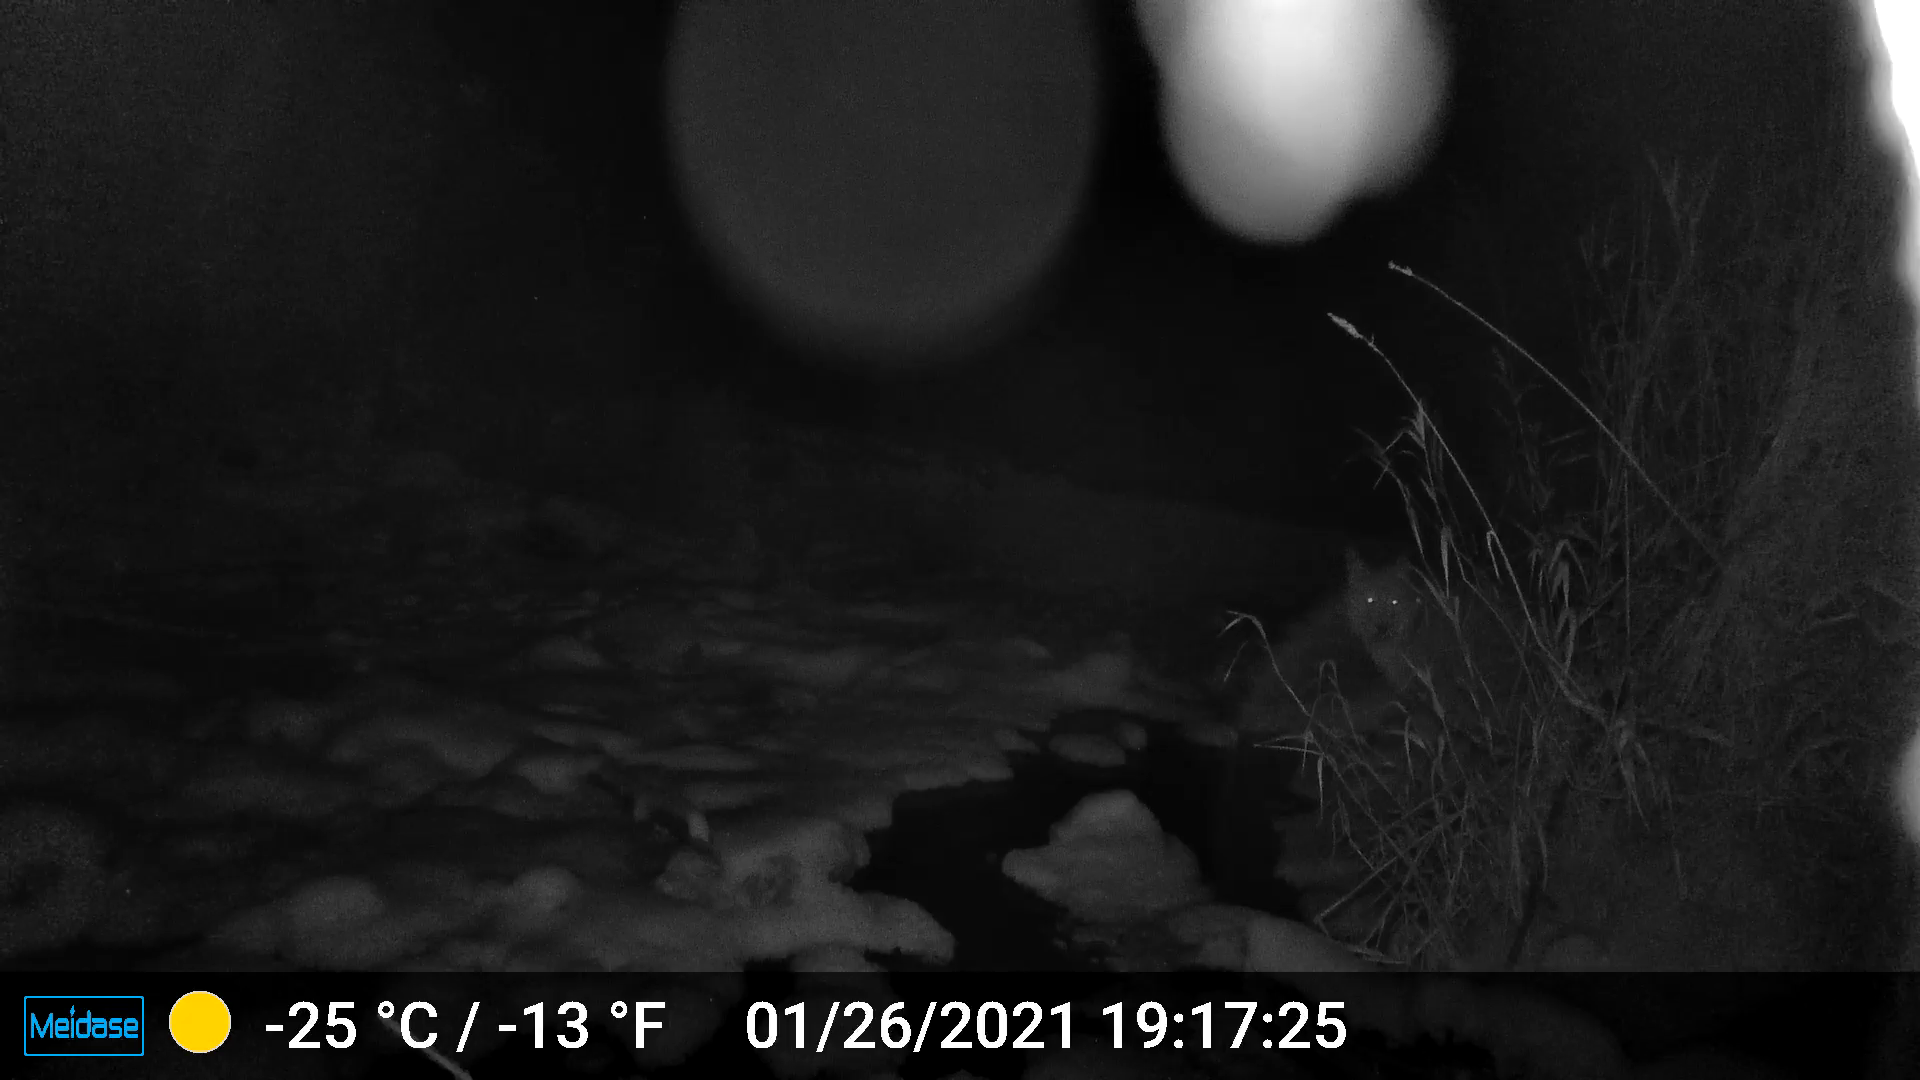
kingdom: Animalia
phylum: Chordata
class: Mammalia
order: Carnivora
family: Canidae
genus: Canis
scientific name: Canis latrans
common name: Coyote
